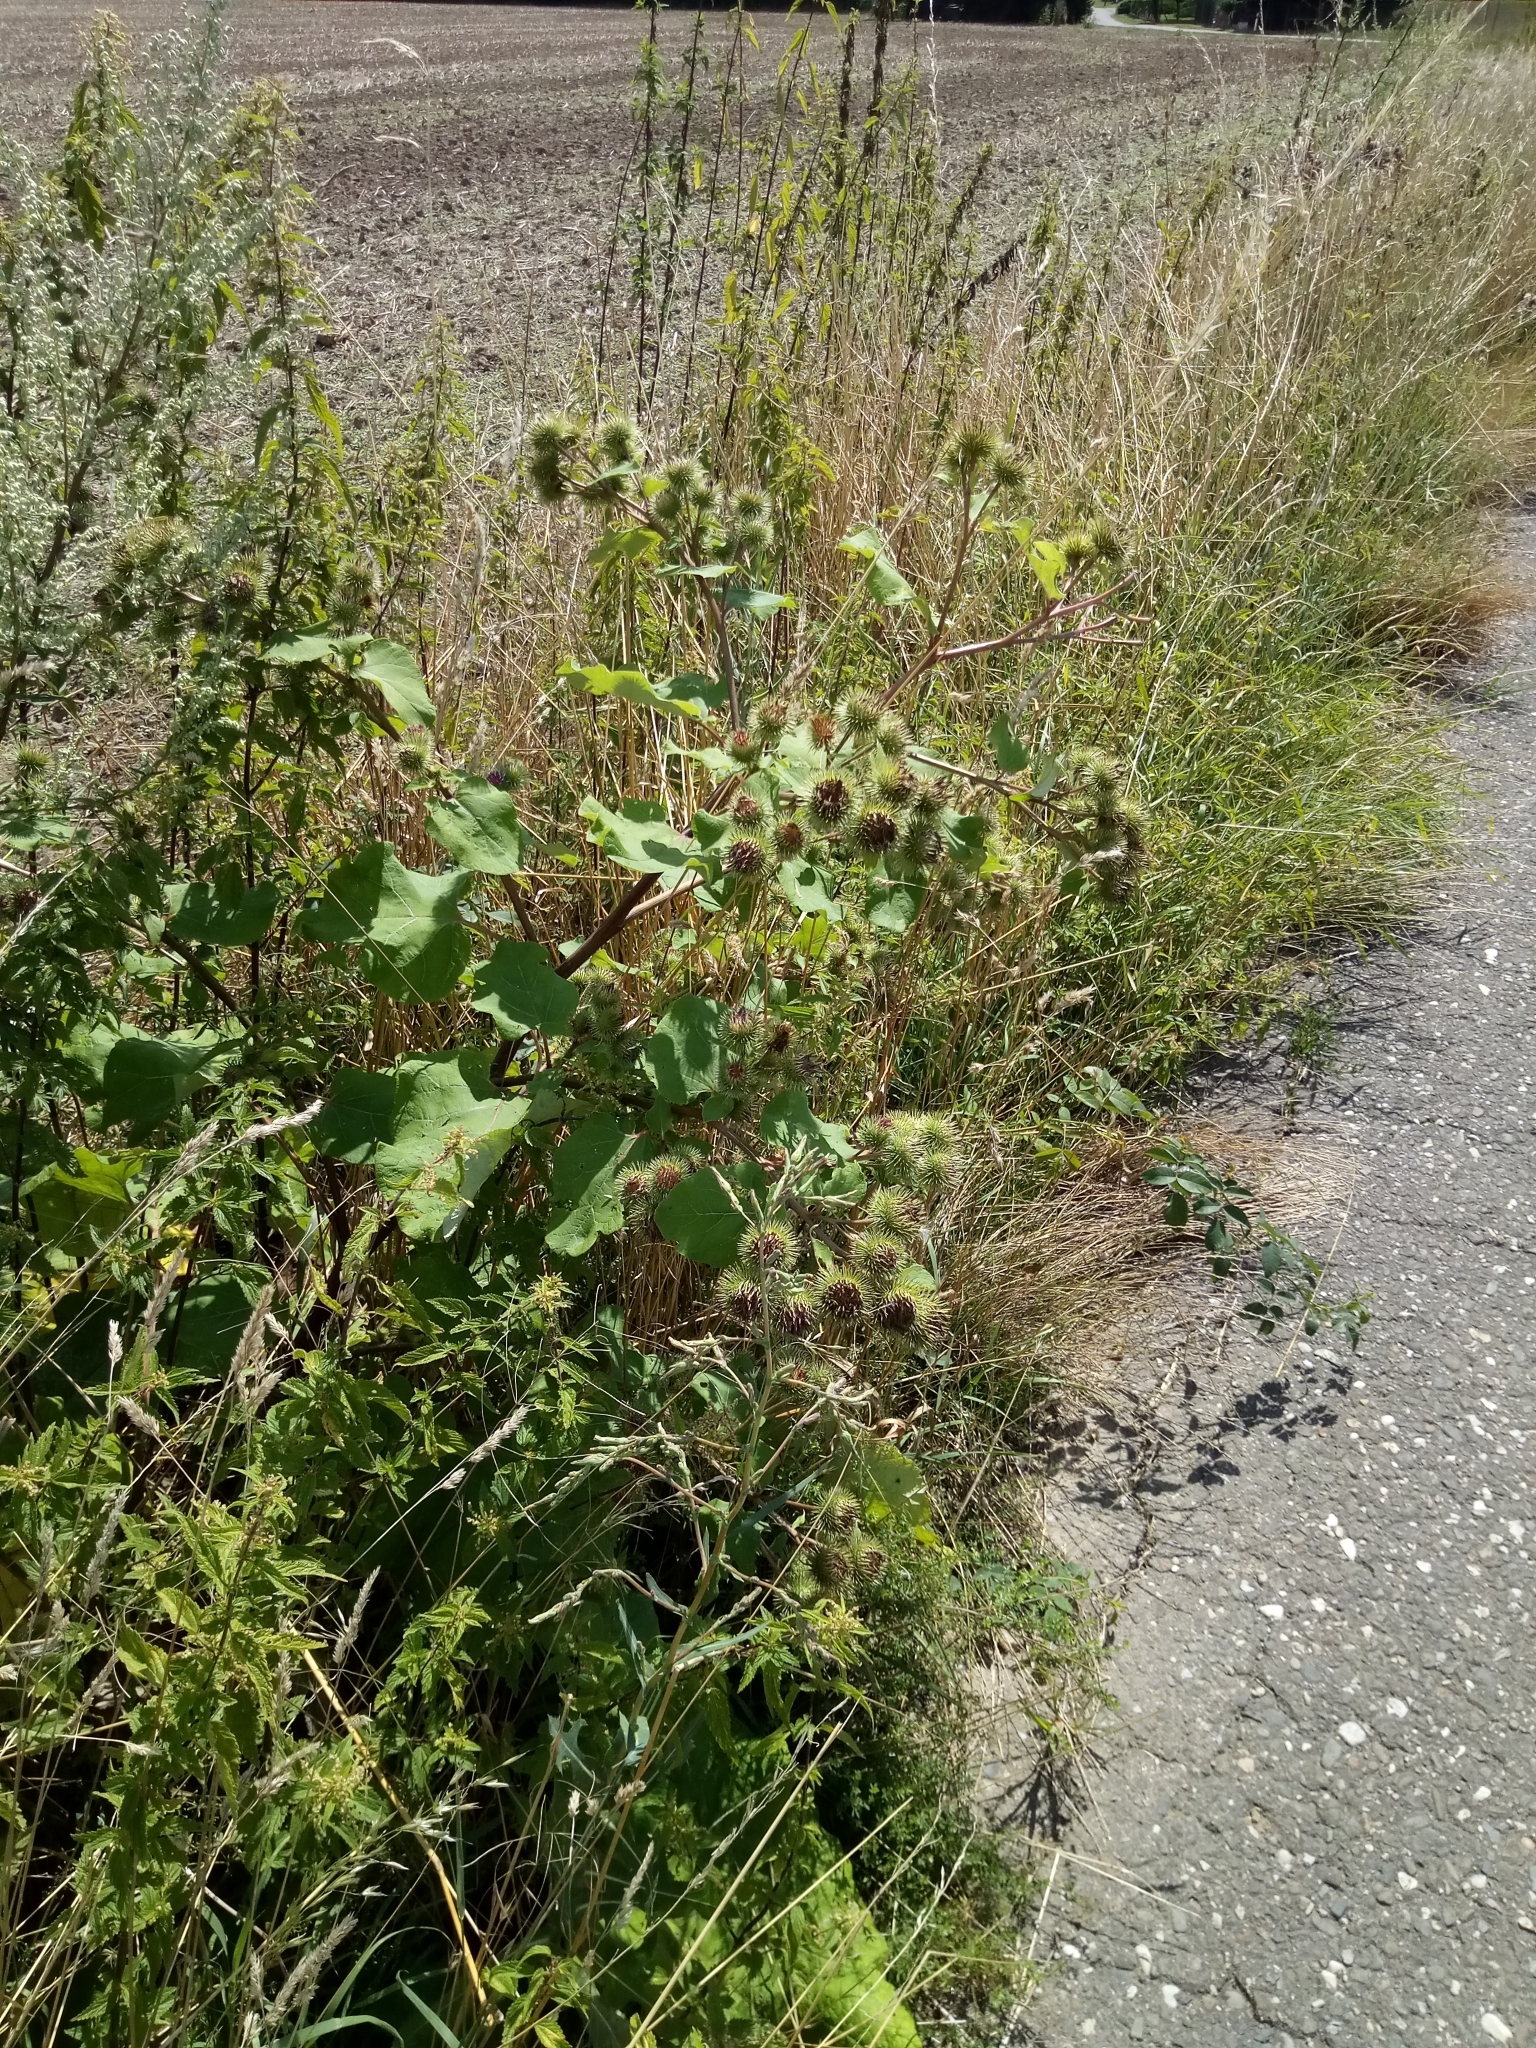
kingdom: Plantae
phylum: Tracheophyta
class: Magnoliopsida
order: Asterales
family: Asteraceae
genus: Arctium
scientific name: Arctium lappa
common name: Greater burdock
